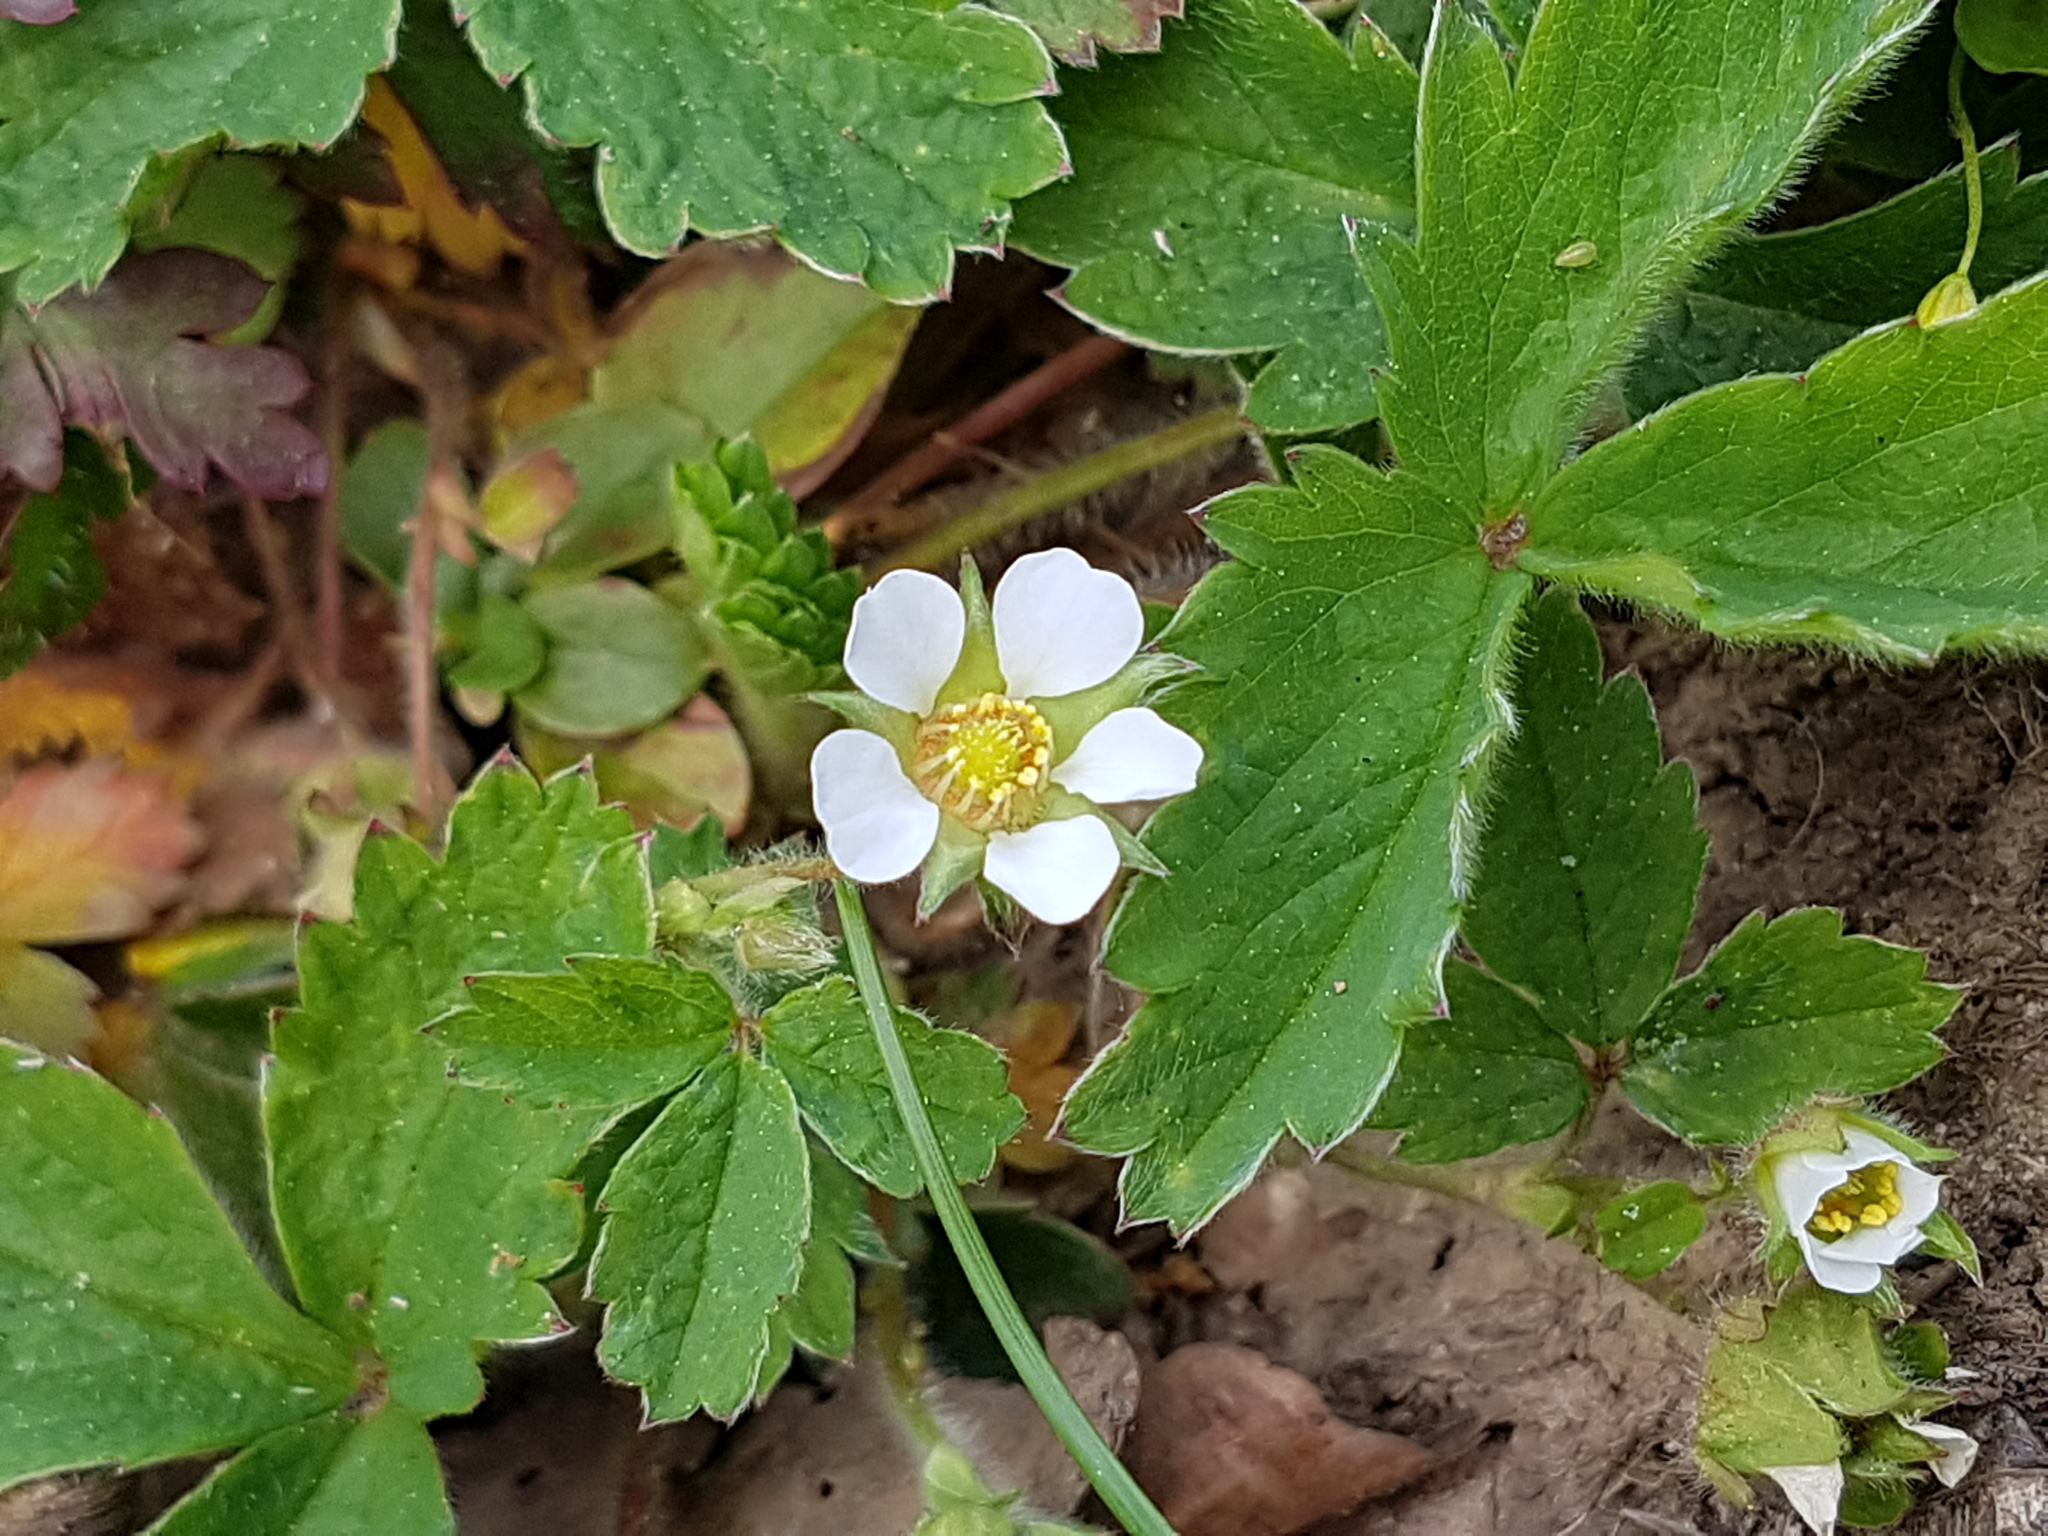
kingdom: Plantae
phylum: Tracheophyta
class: Magnoliopsida
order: Rosales
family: Rosaceae
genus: Potentilla
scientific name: Potentilla sterilis
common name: Barren strawberry
